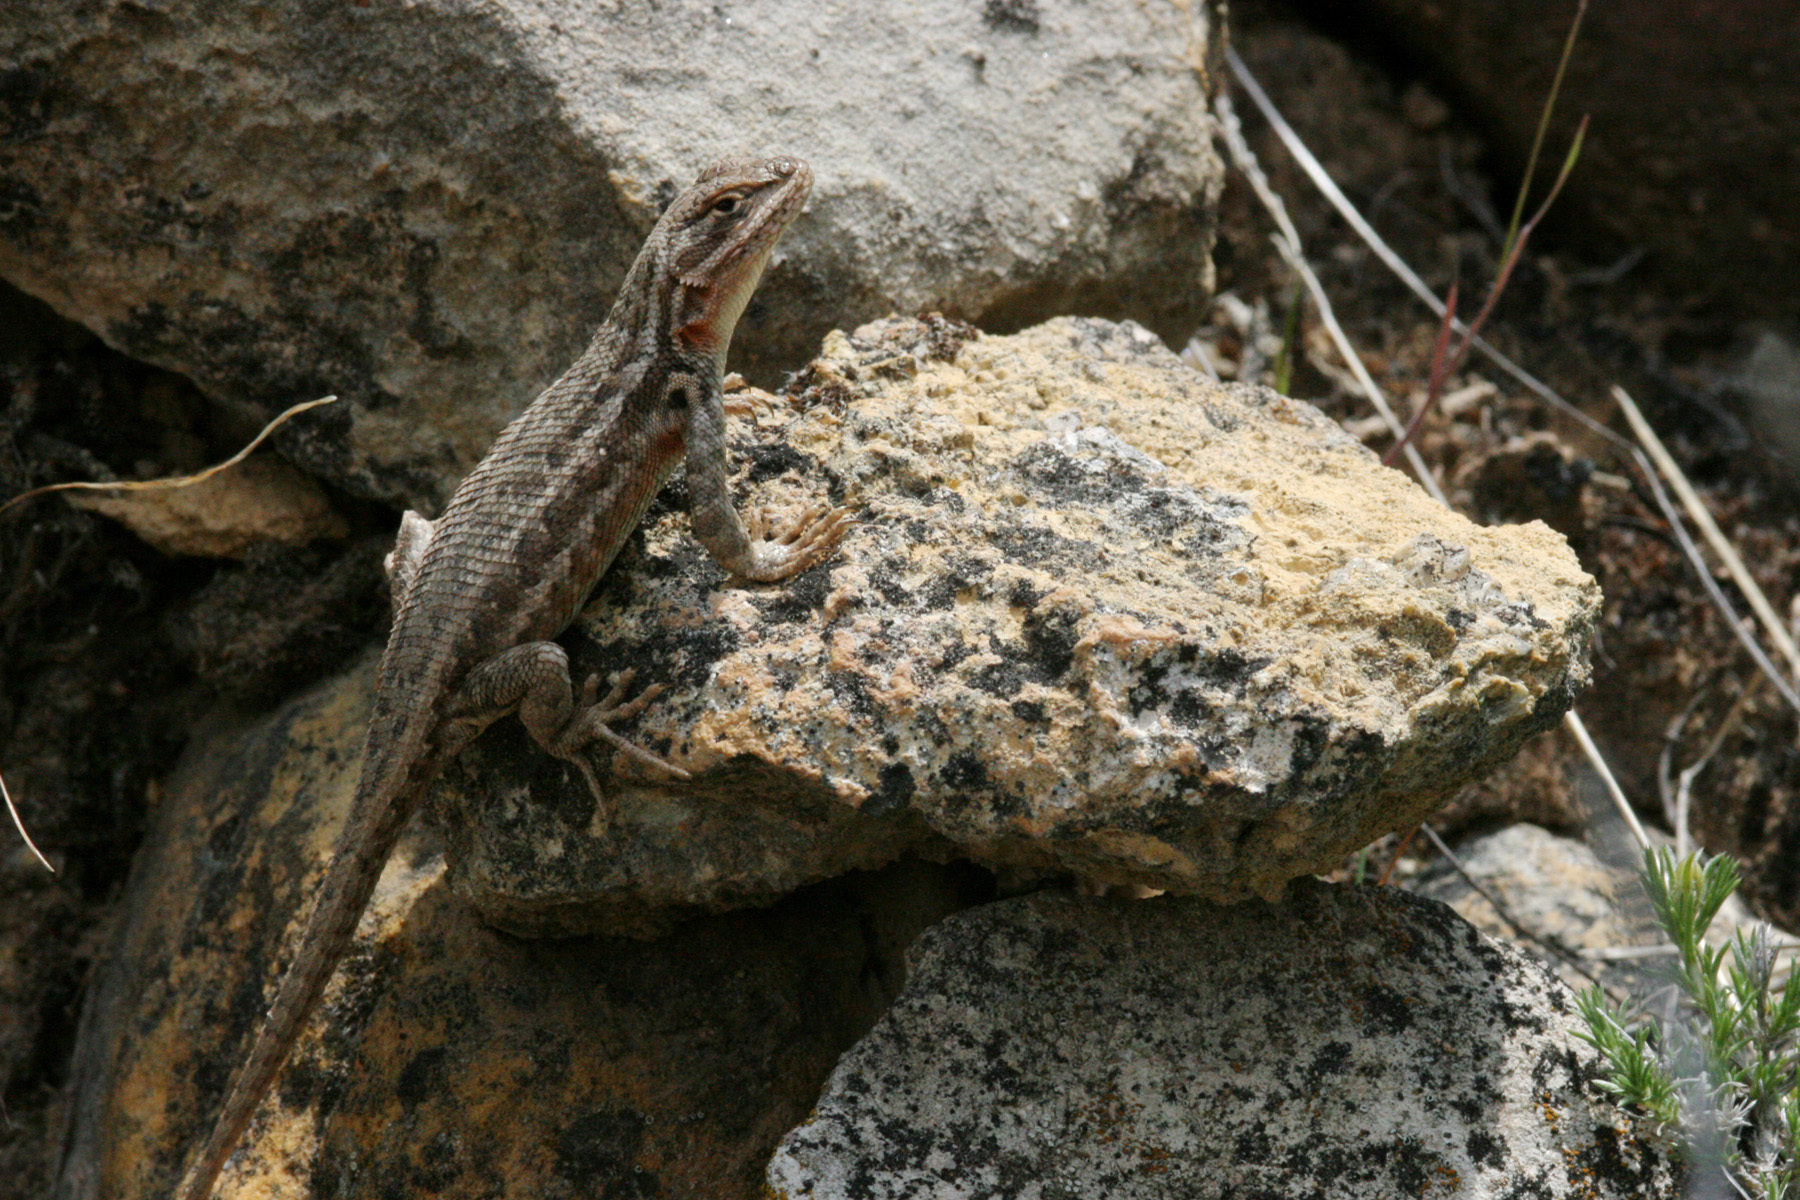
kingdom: Animalia
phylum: Chordata
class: Squamata
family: Phrynosomatidae
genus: Sceloporus
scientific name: Sceloporus graciosus
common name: Sagebrush lizard
